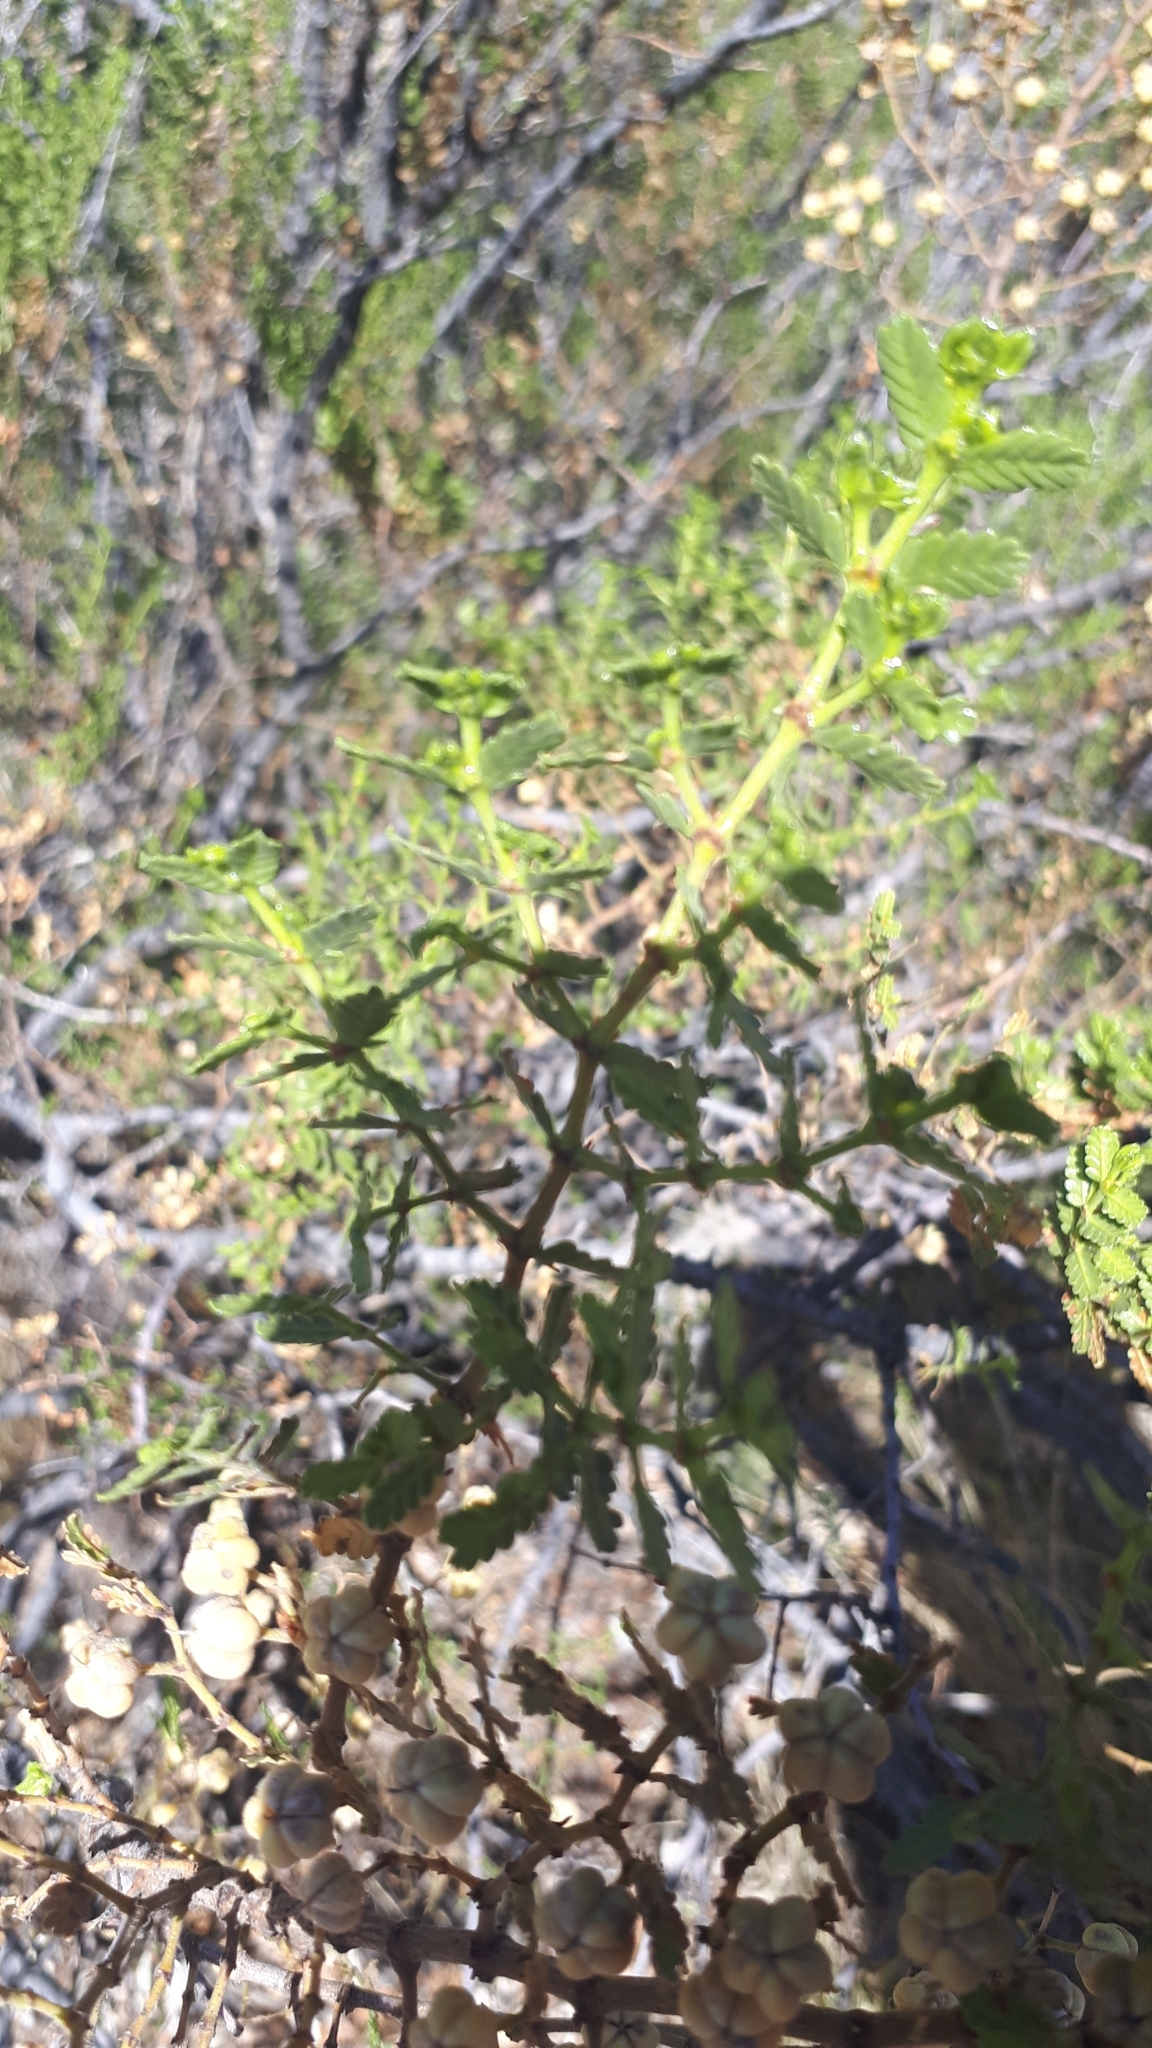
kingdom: Plantae
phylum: Tracheophyta
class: Magnoliopsida
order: Zygophyllales
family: Zygophyllaceae
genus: Larrea
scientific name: Larrea nitida
